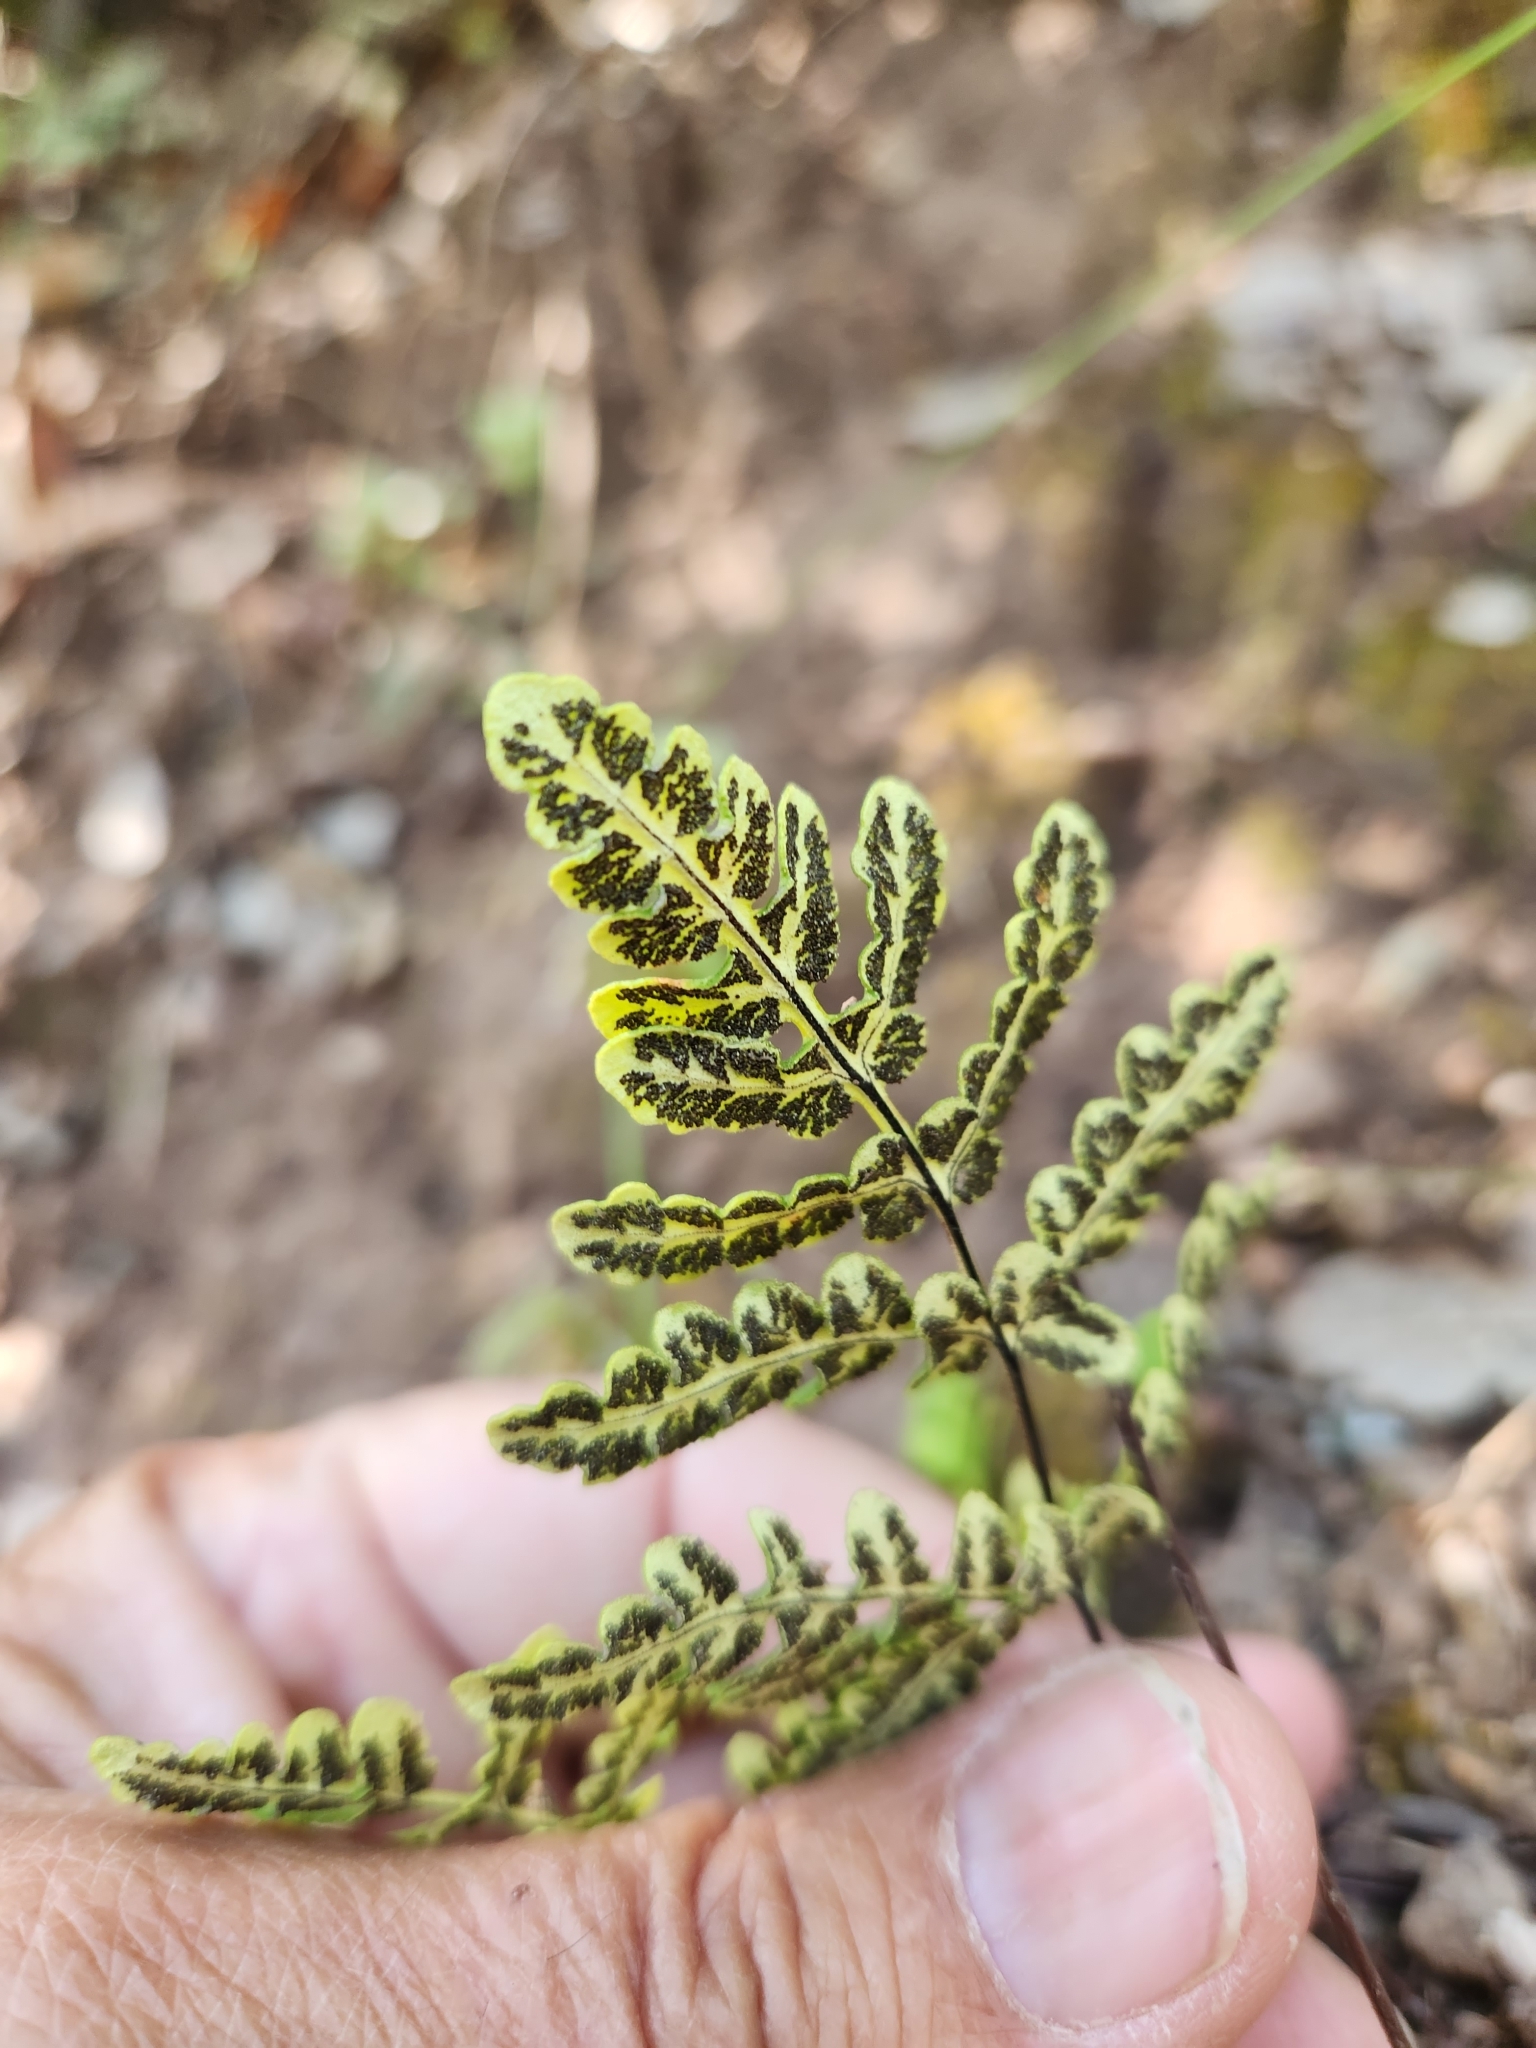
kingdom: Plantae
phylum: Tracheophyta
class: Polypodiopsida
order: Polypodiales
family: Pteridaceae
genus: Pentagramma
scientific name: Pentagramma triangularis
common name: Gold fern
